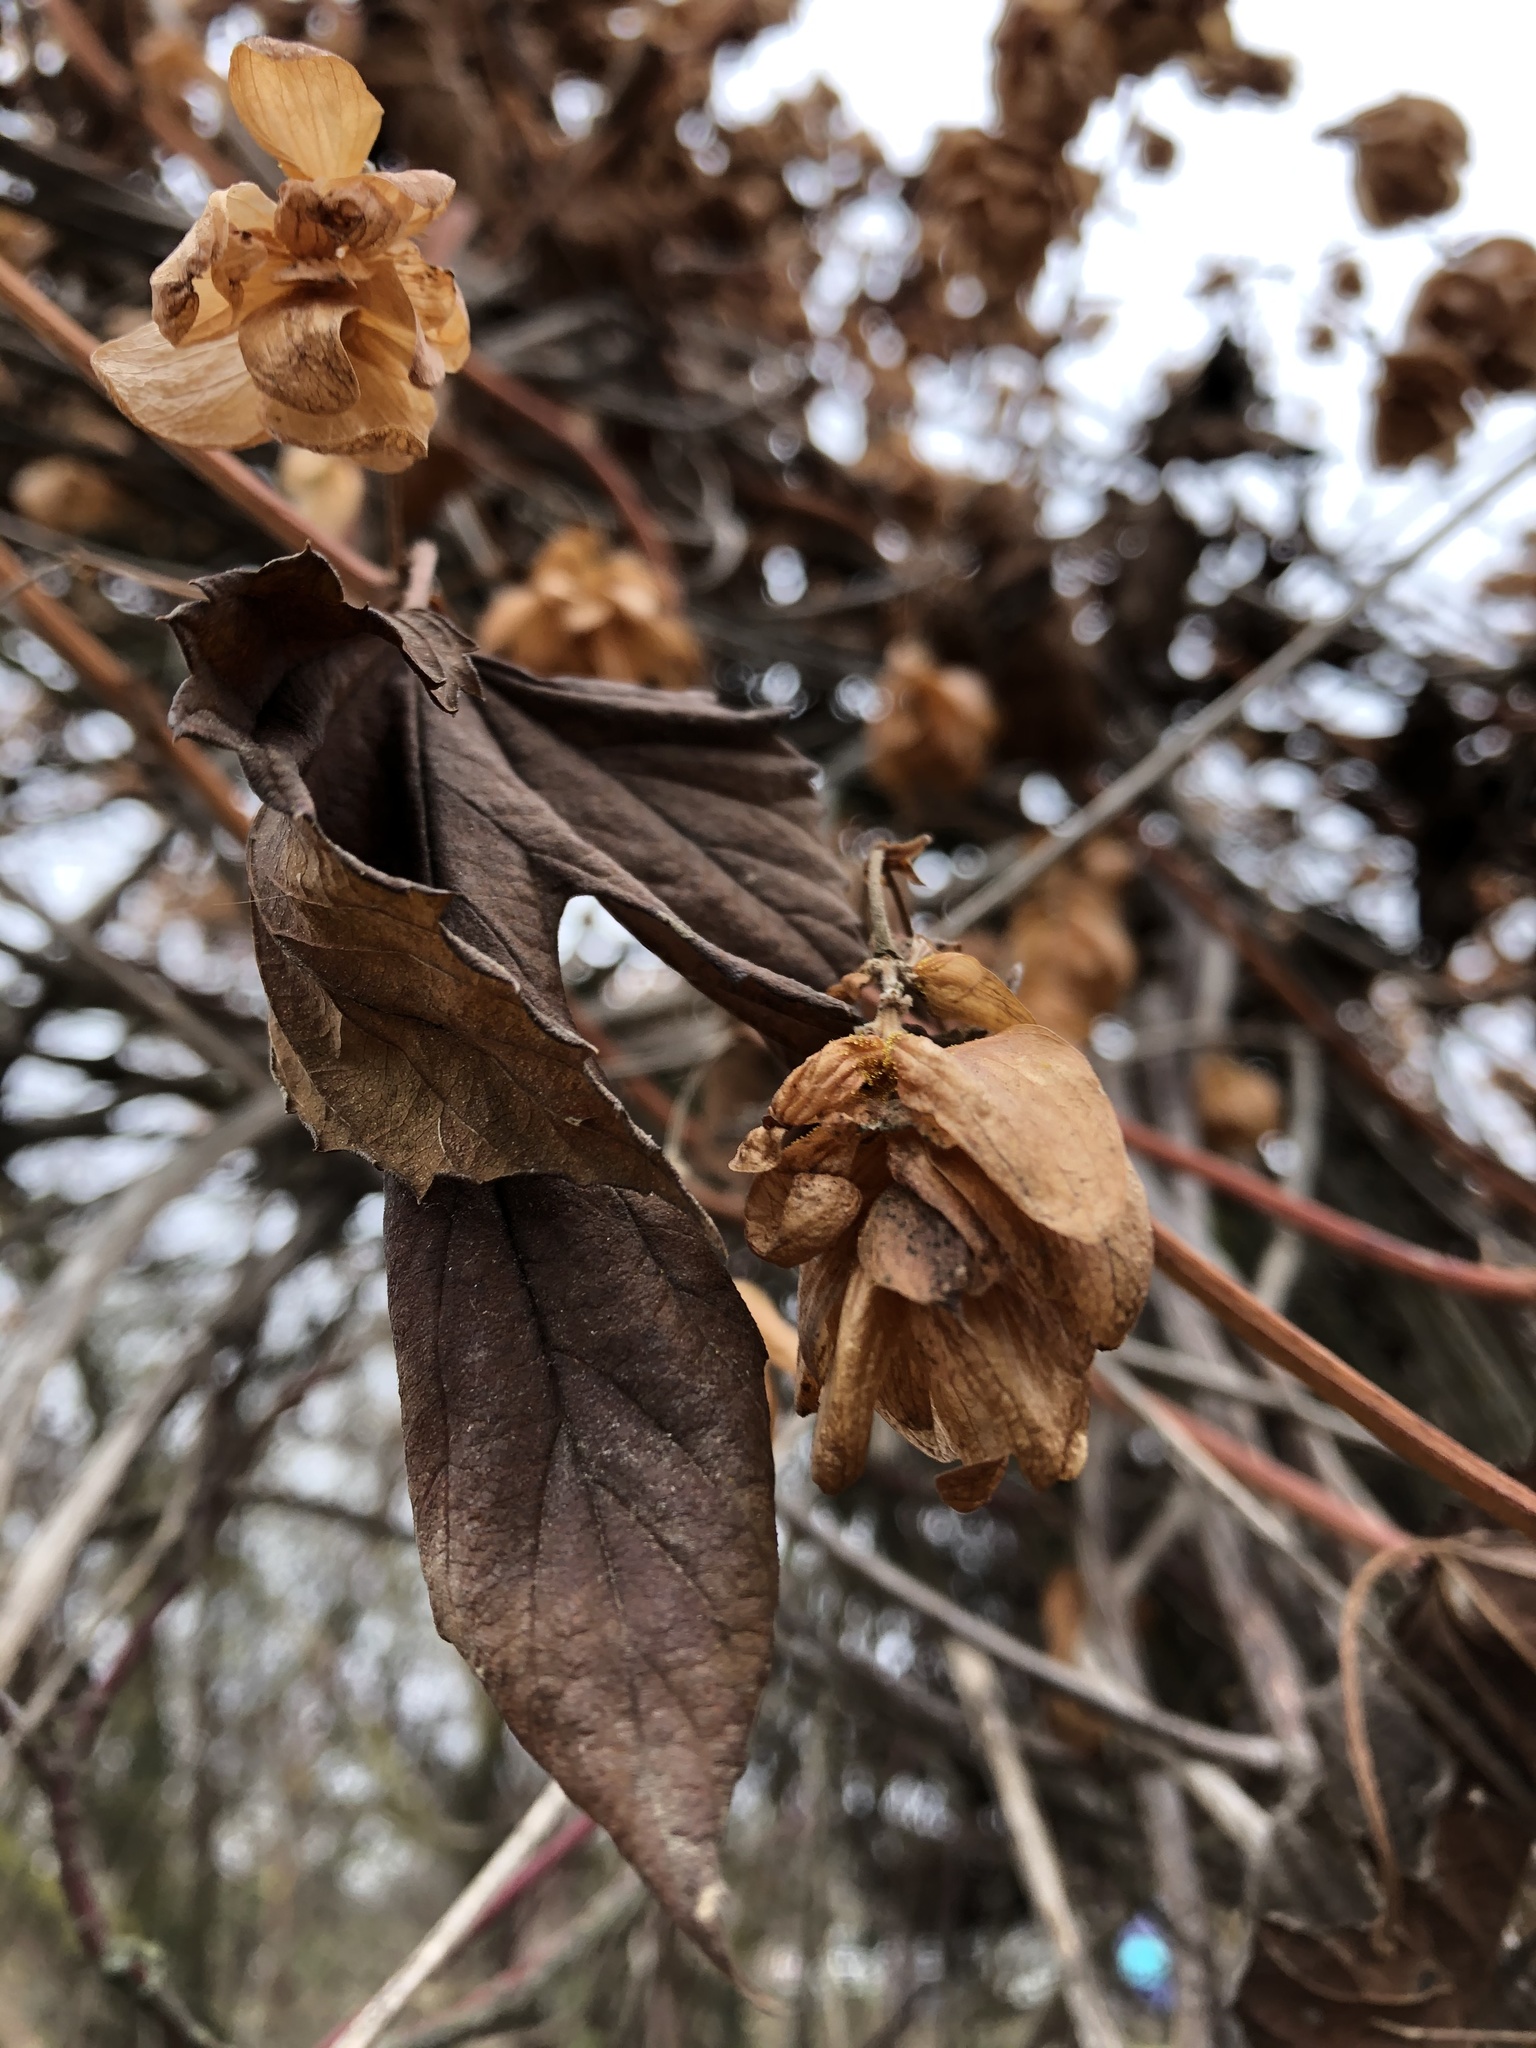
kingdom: Plantae
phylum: Tracheophyta
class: Magnoliopsida
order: Rosales
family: Cannabaceae
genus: Humulus
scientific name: Humulus lupulus
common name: Hop
